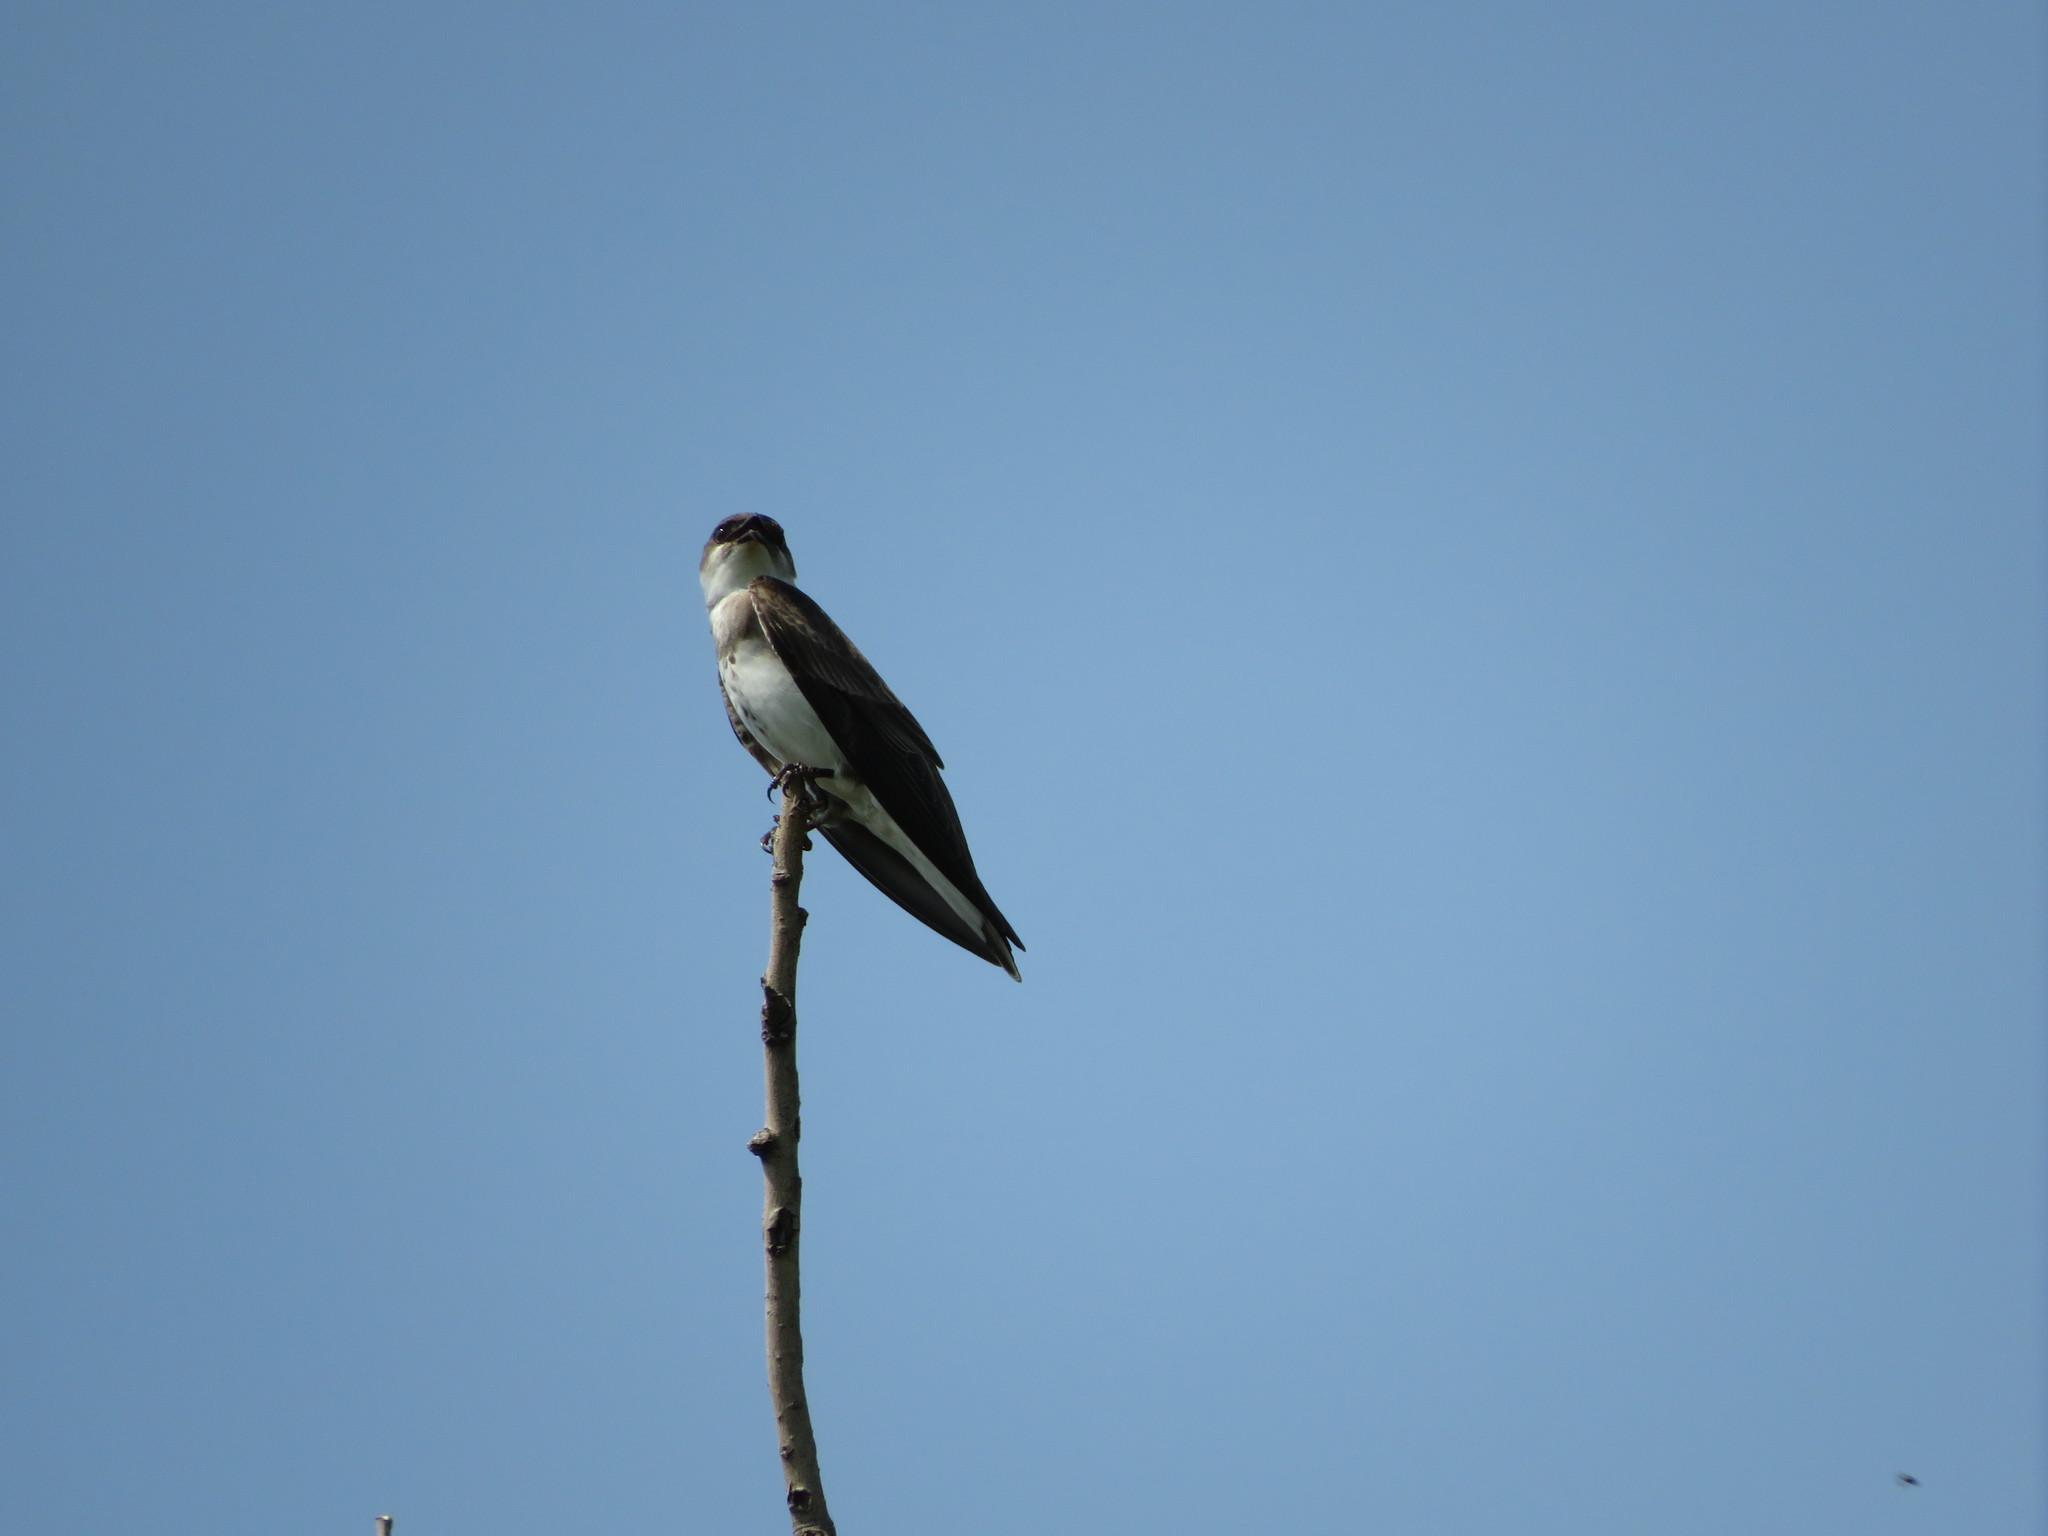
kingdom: Animalia
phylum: Chordata
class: Aves
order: Passeriformes
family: Hirundinidae
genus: Progne
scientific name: Progne tapera
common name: Brown-chested martin
